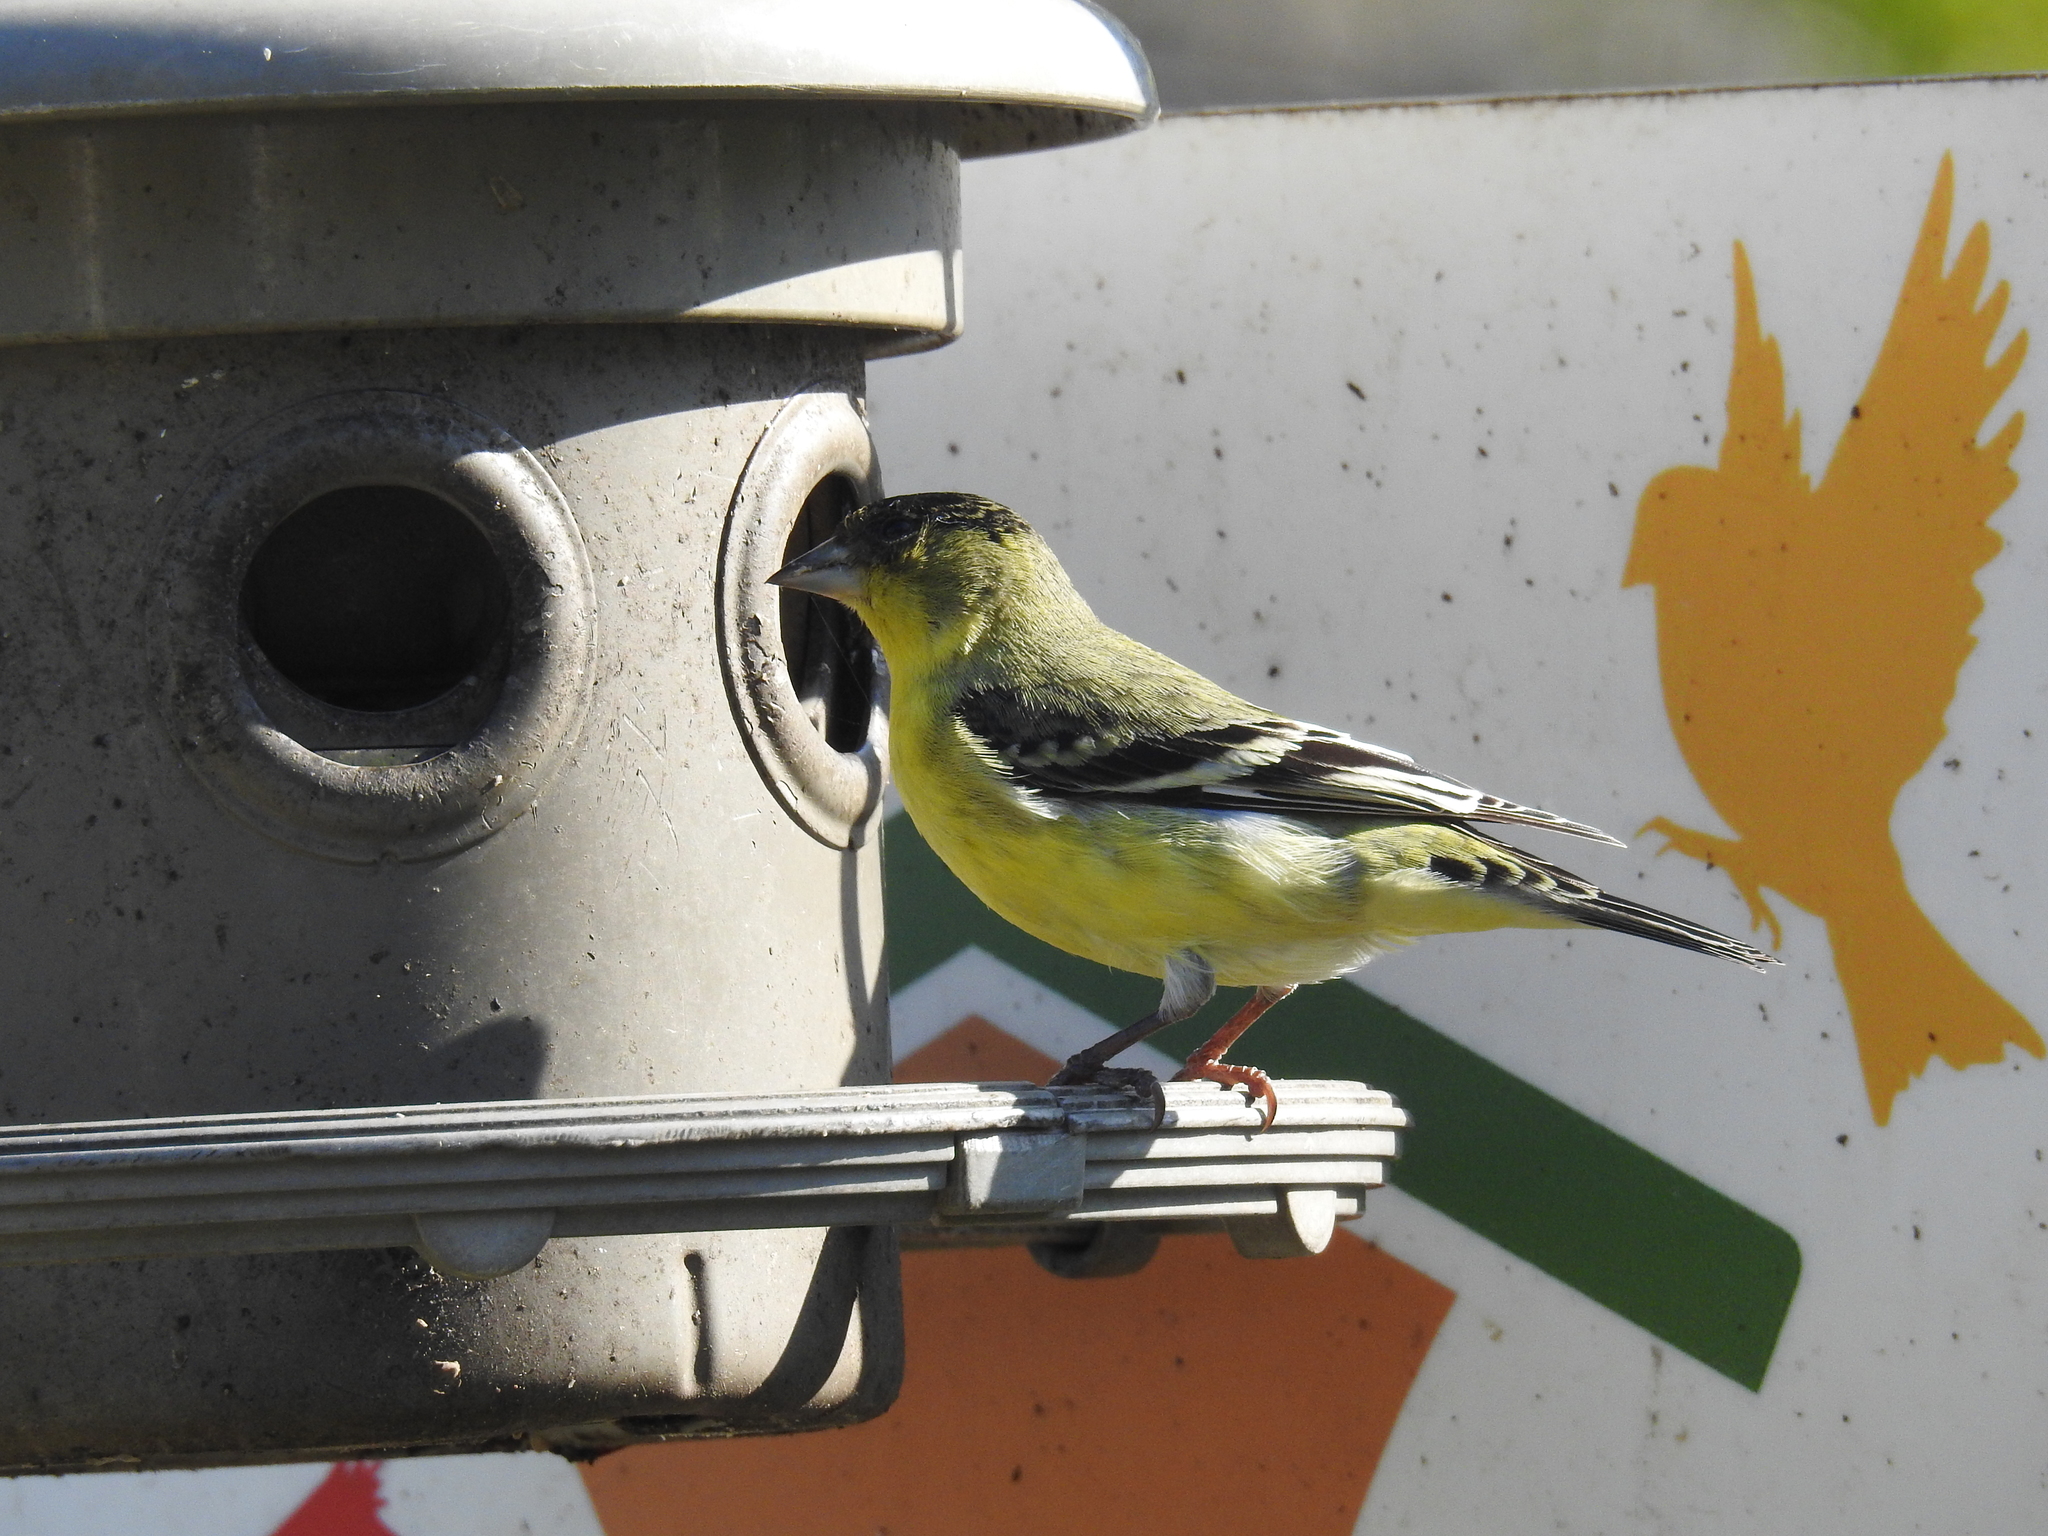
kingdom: Animalia
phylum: Chordata
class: Aves
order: Passeriformes
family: Fringillidae
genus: Spinus
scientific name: Spinus psaltria
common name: Lesser goldfinch
